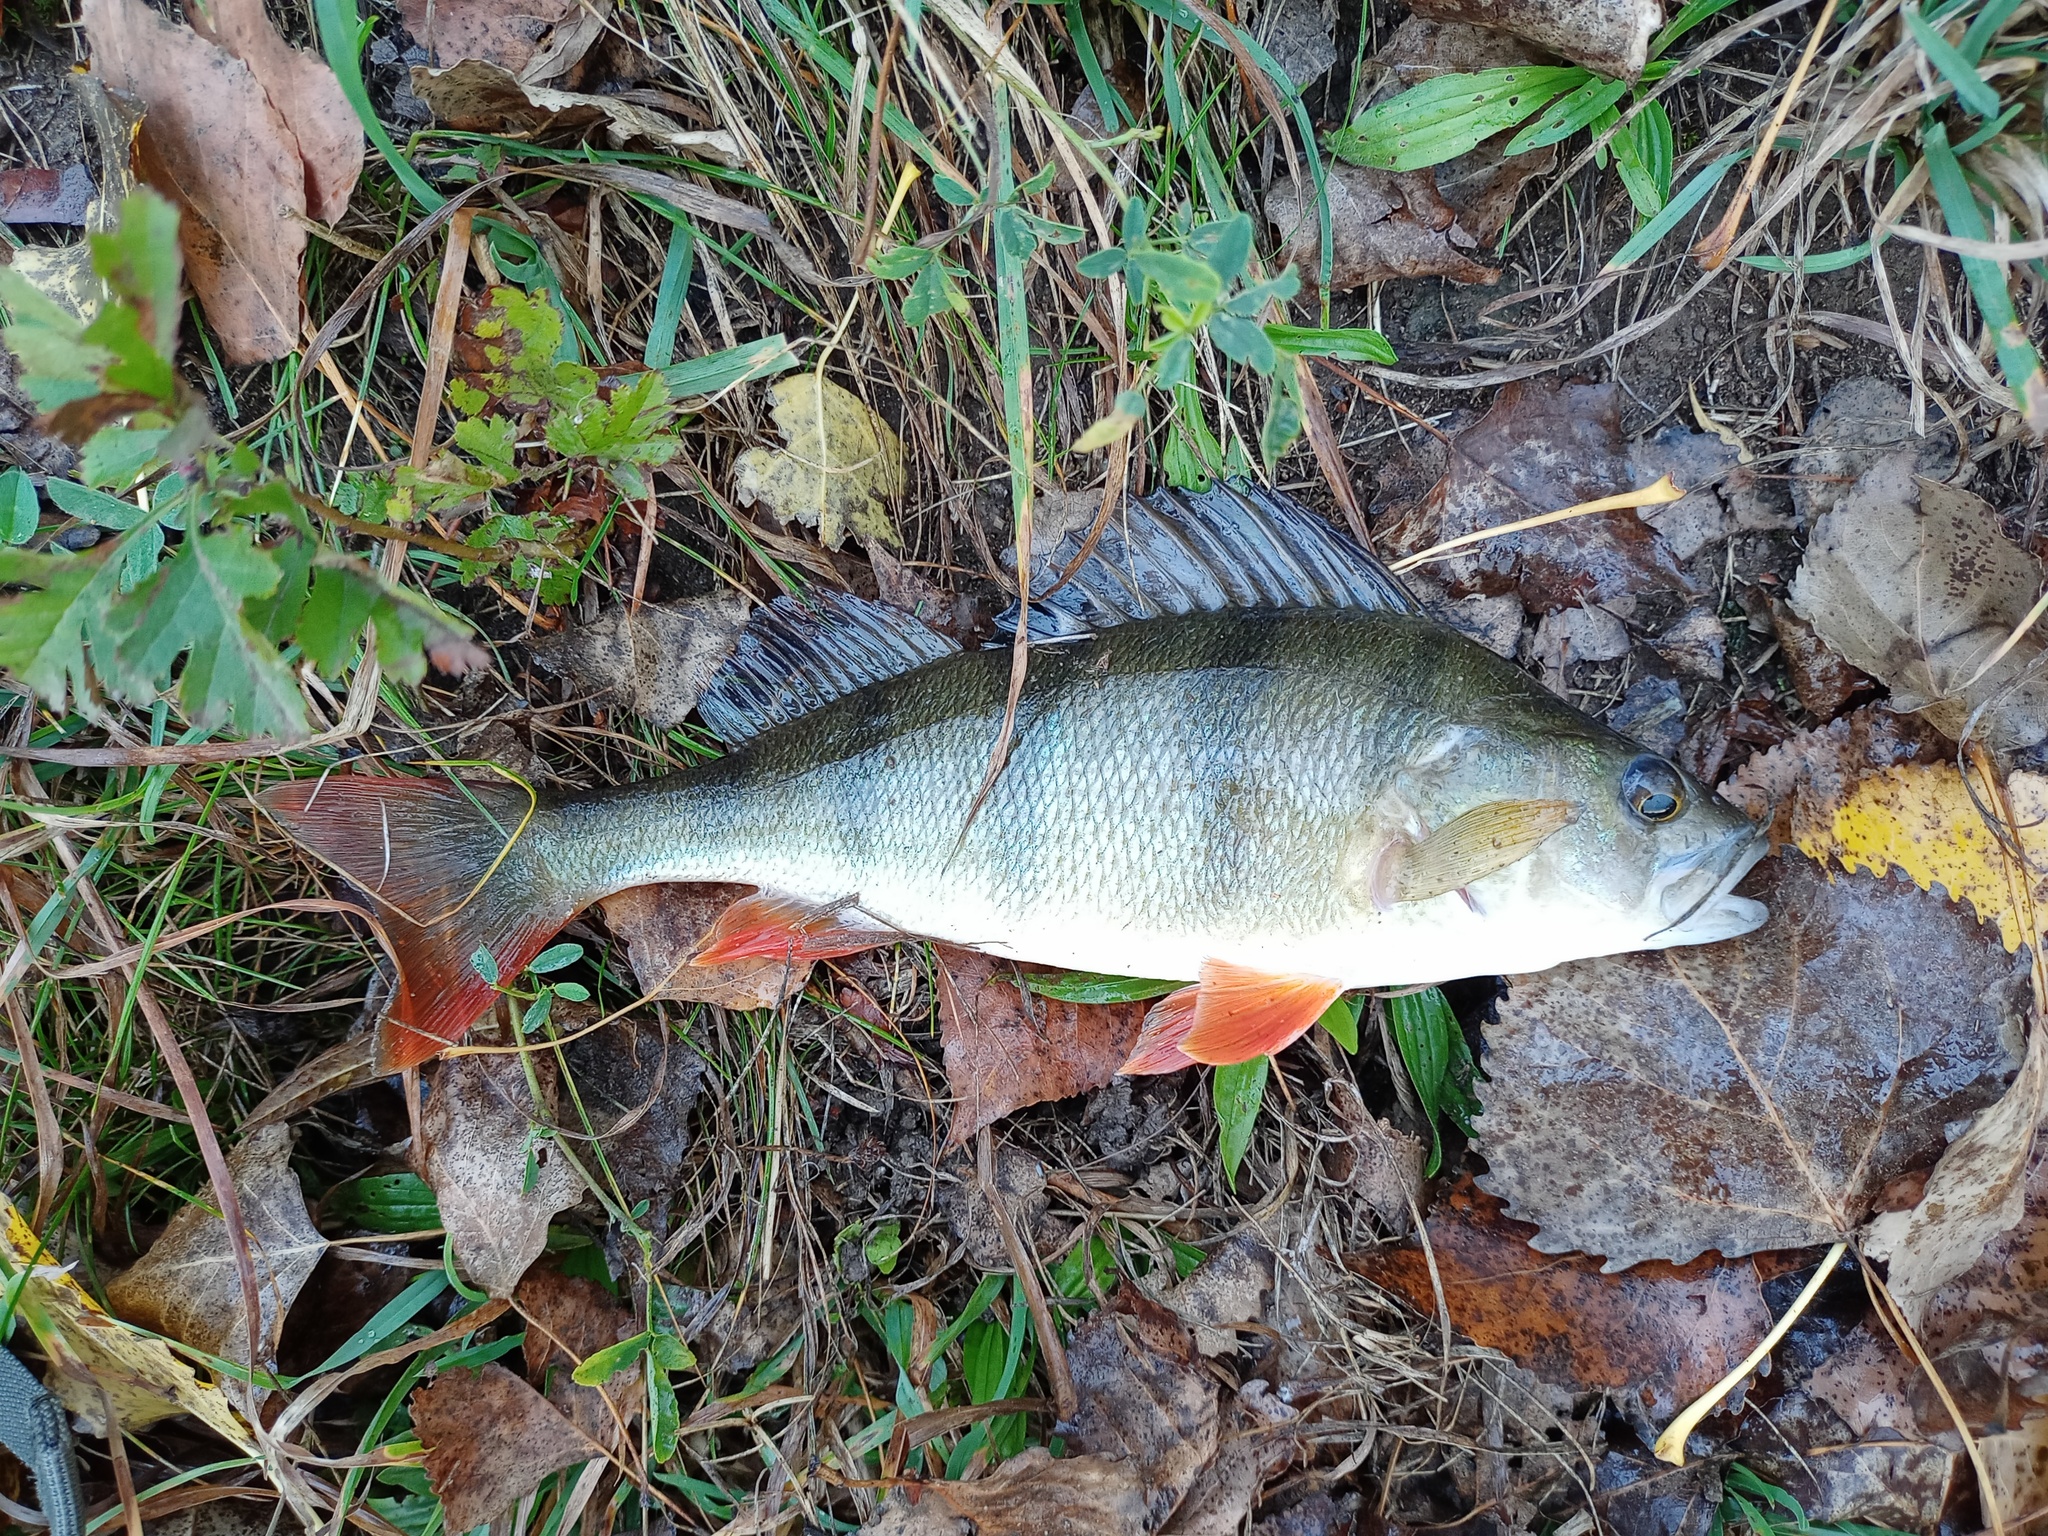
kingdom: Animalia
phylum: Chordata
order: Perciformes
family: Percidae
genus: Perca
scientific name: Perca fluviatilis
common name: Perch
